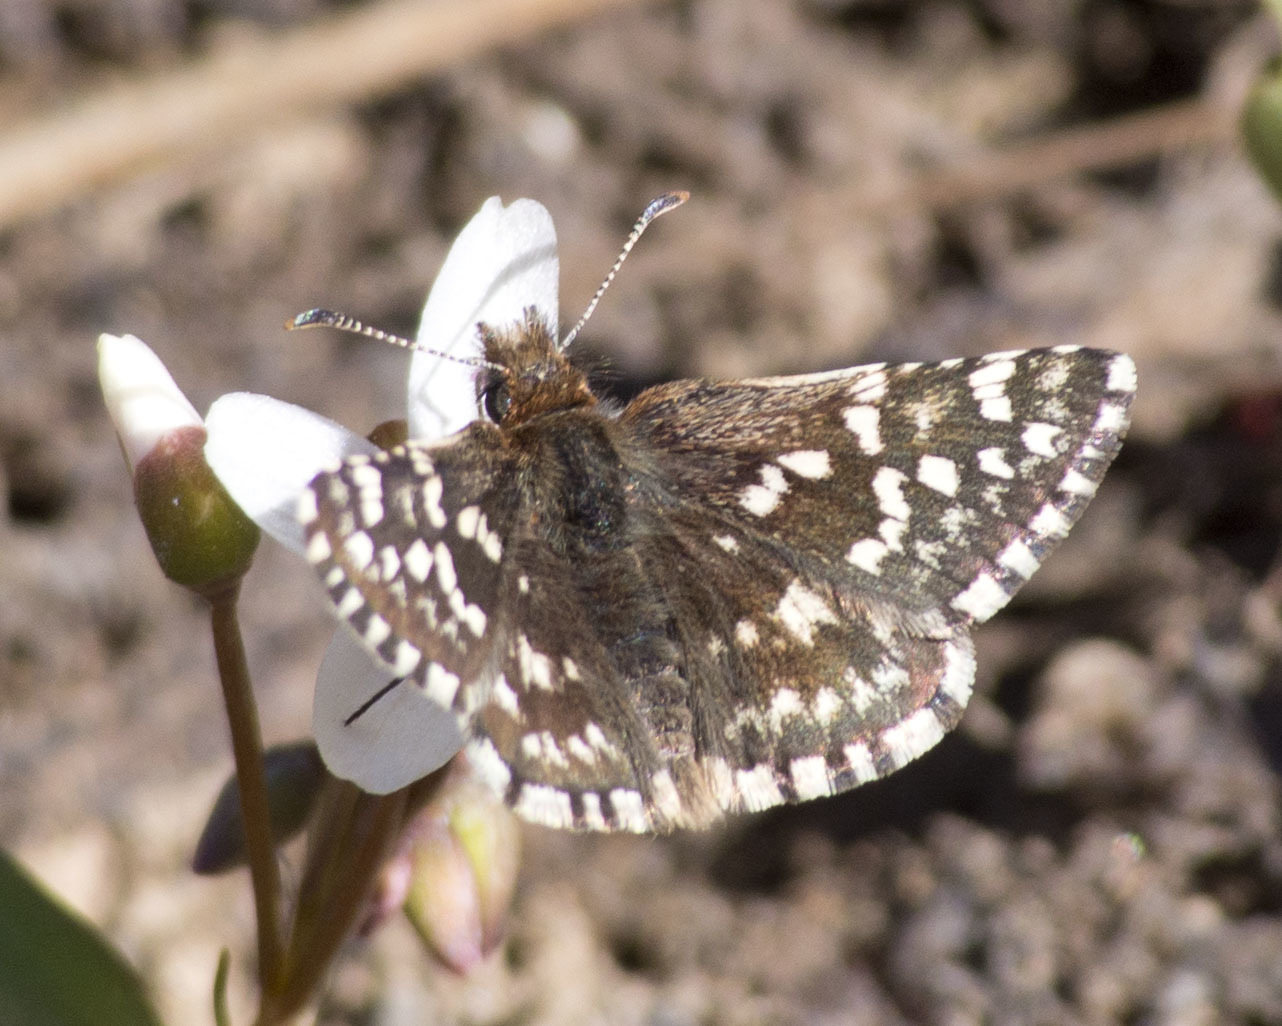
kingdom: Animalia
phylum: Arthropoda
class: Insecta
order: Lepidoptera
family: Hesperiidae
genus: Pyrgus
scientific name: Pyrgus ruralis
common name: Two-banded checkered-skipper
